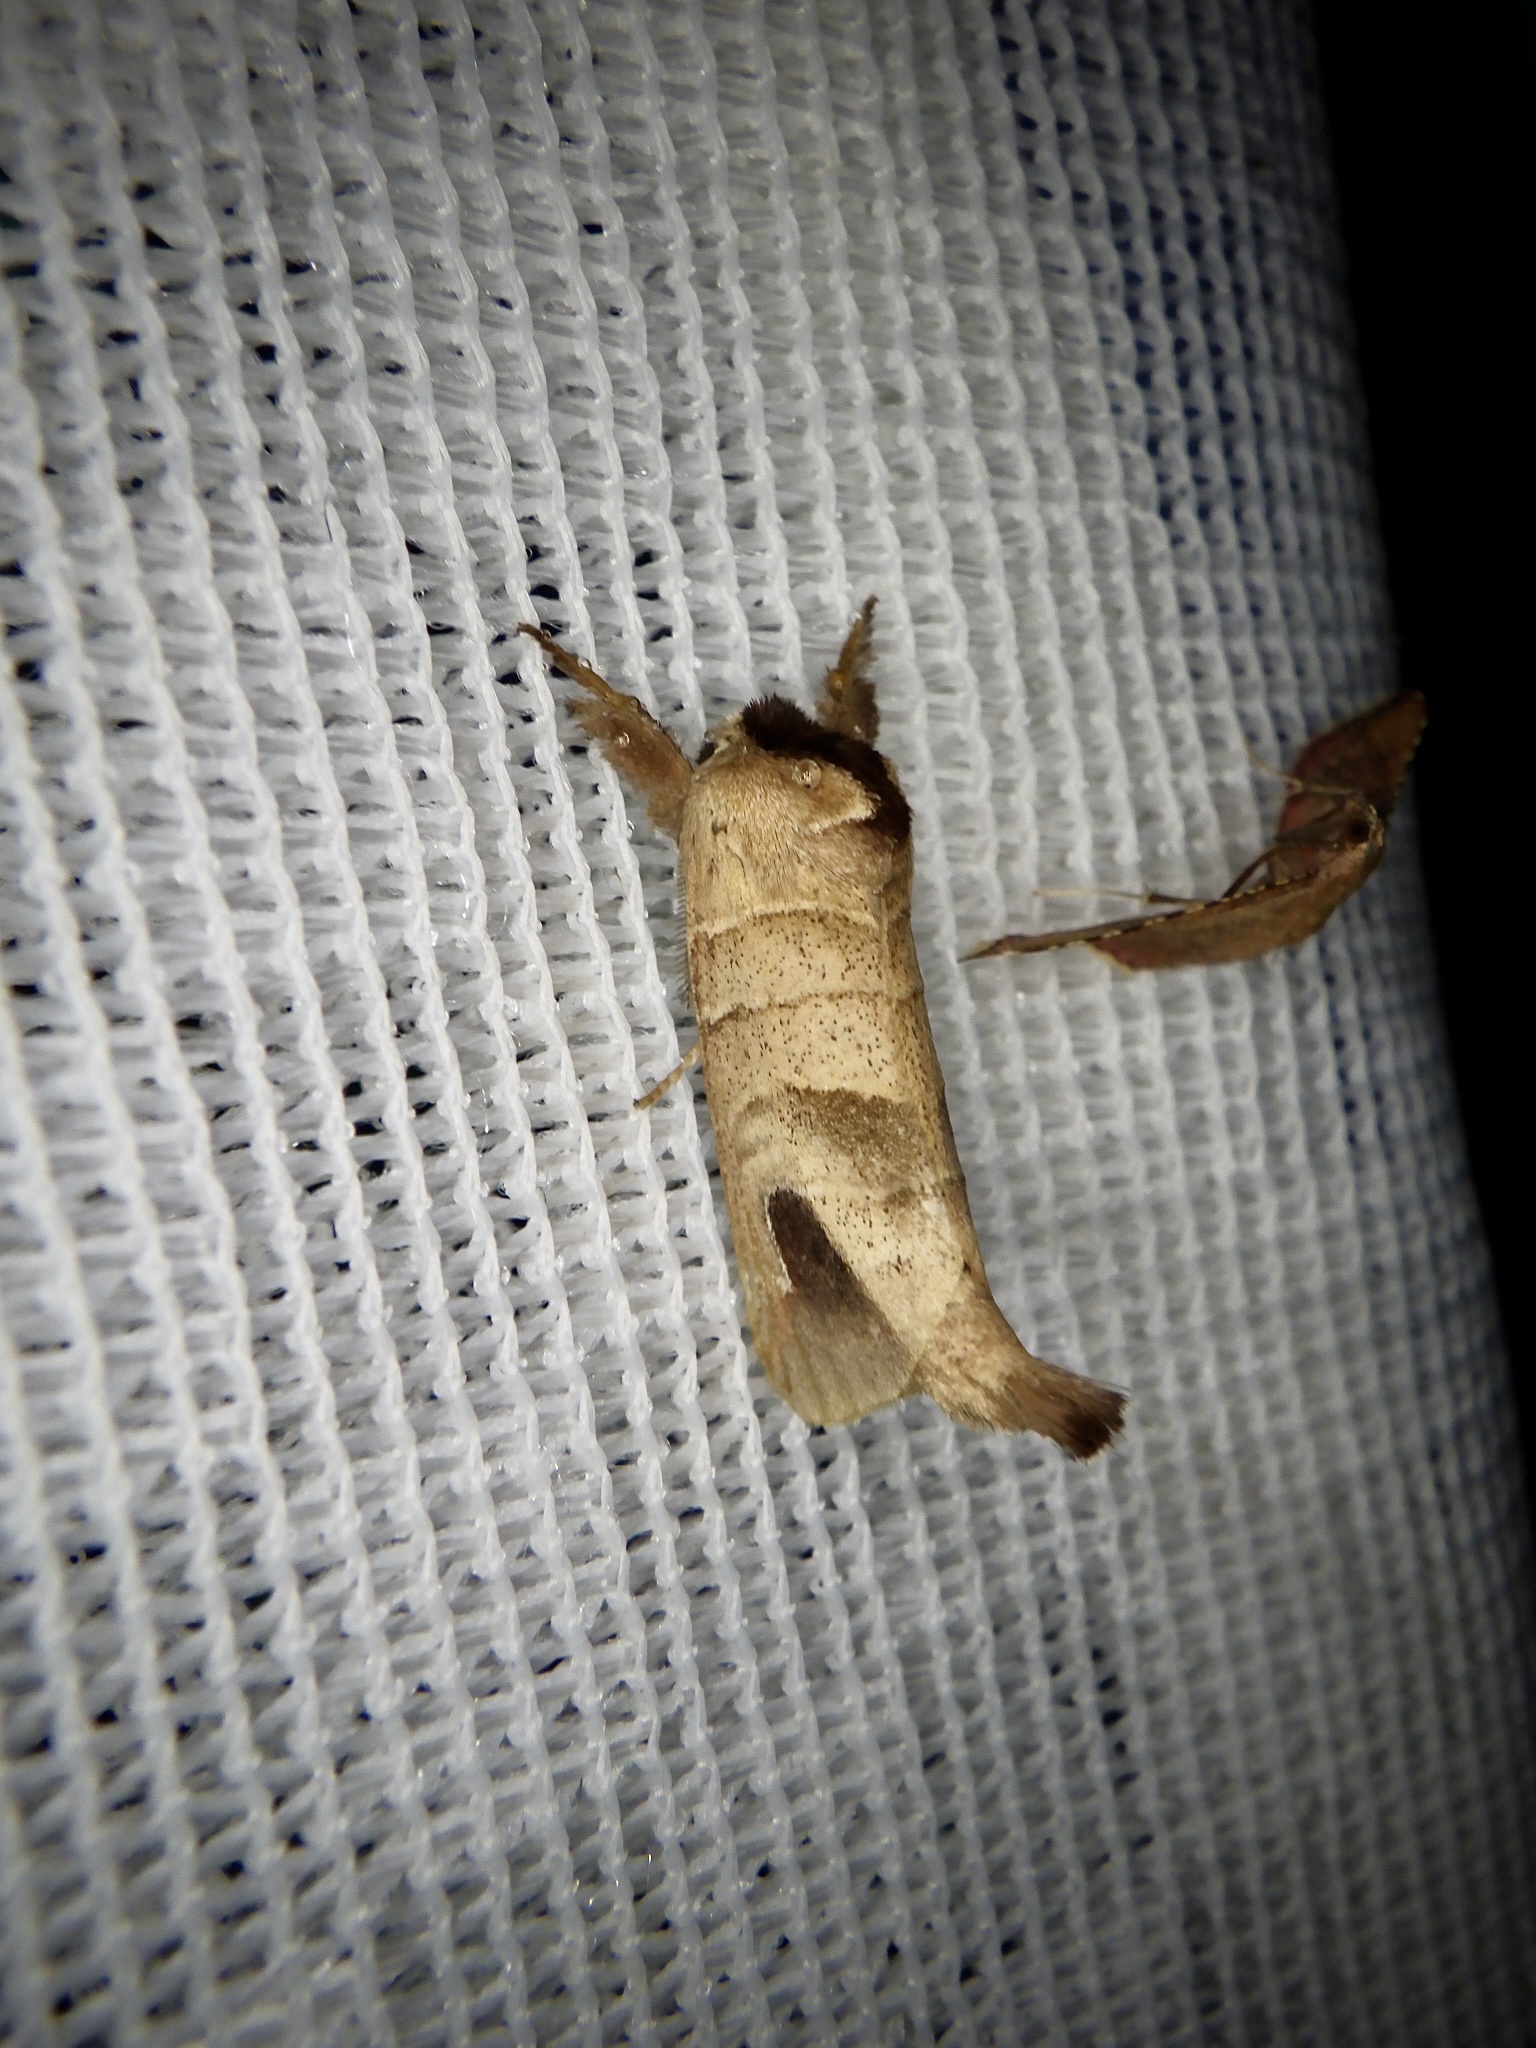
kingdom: Animalia
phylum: Arthropoda
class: Insecta
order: Lepidoptera
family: Notodontidae
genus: Clostera
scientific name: Clostera albosigma
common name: Sigmoid prominent
